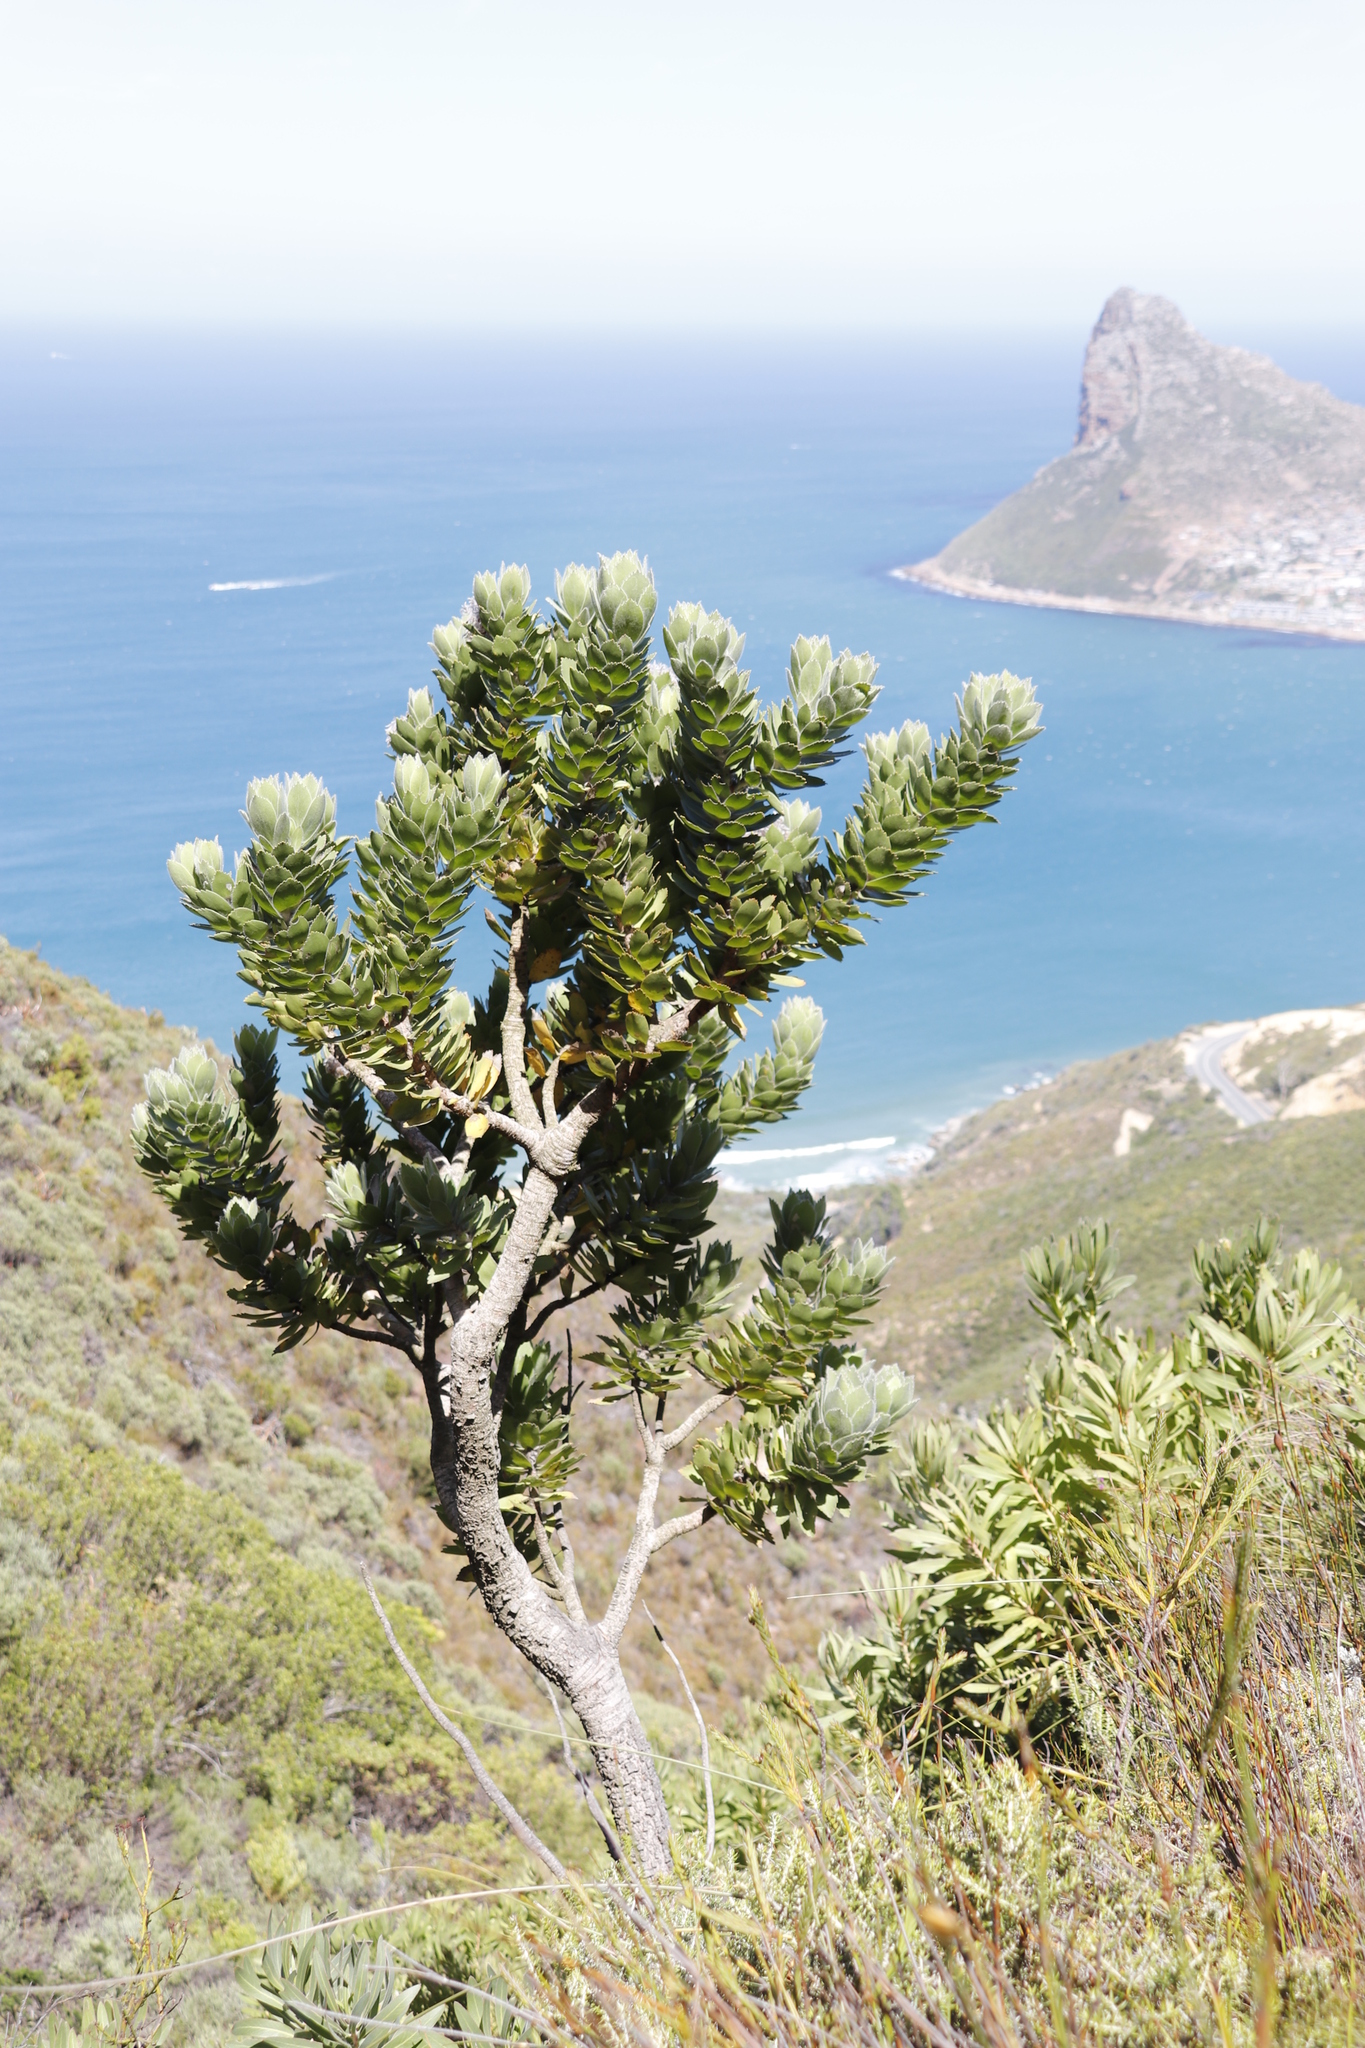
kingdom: Plantae
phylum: Tracheophyta
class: Magnoliopsida
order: Proteales
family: Proteaceae
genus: Leucospermum
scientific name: Leucospermum conocarpodendron
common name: Tree pincushion
